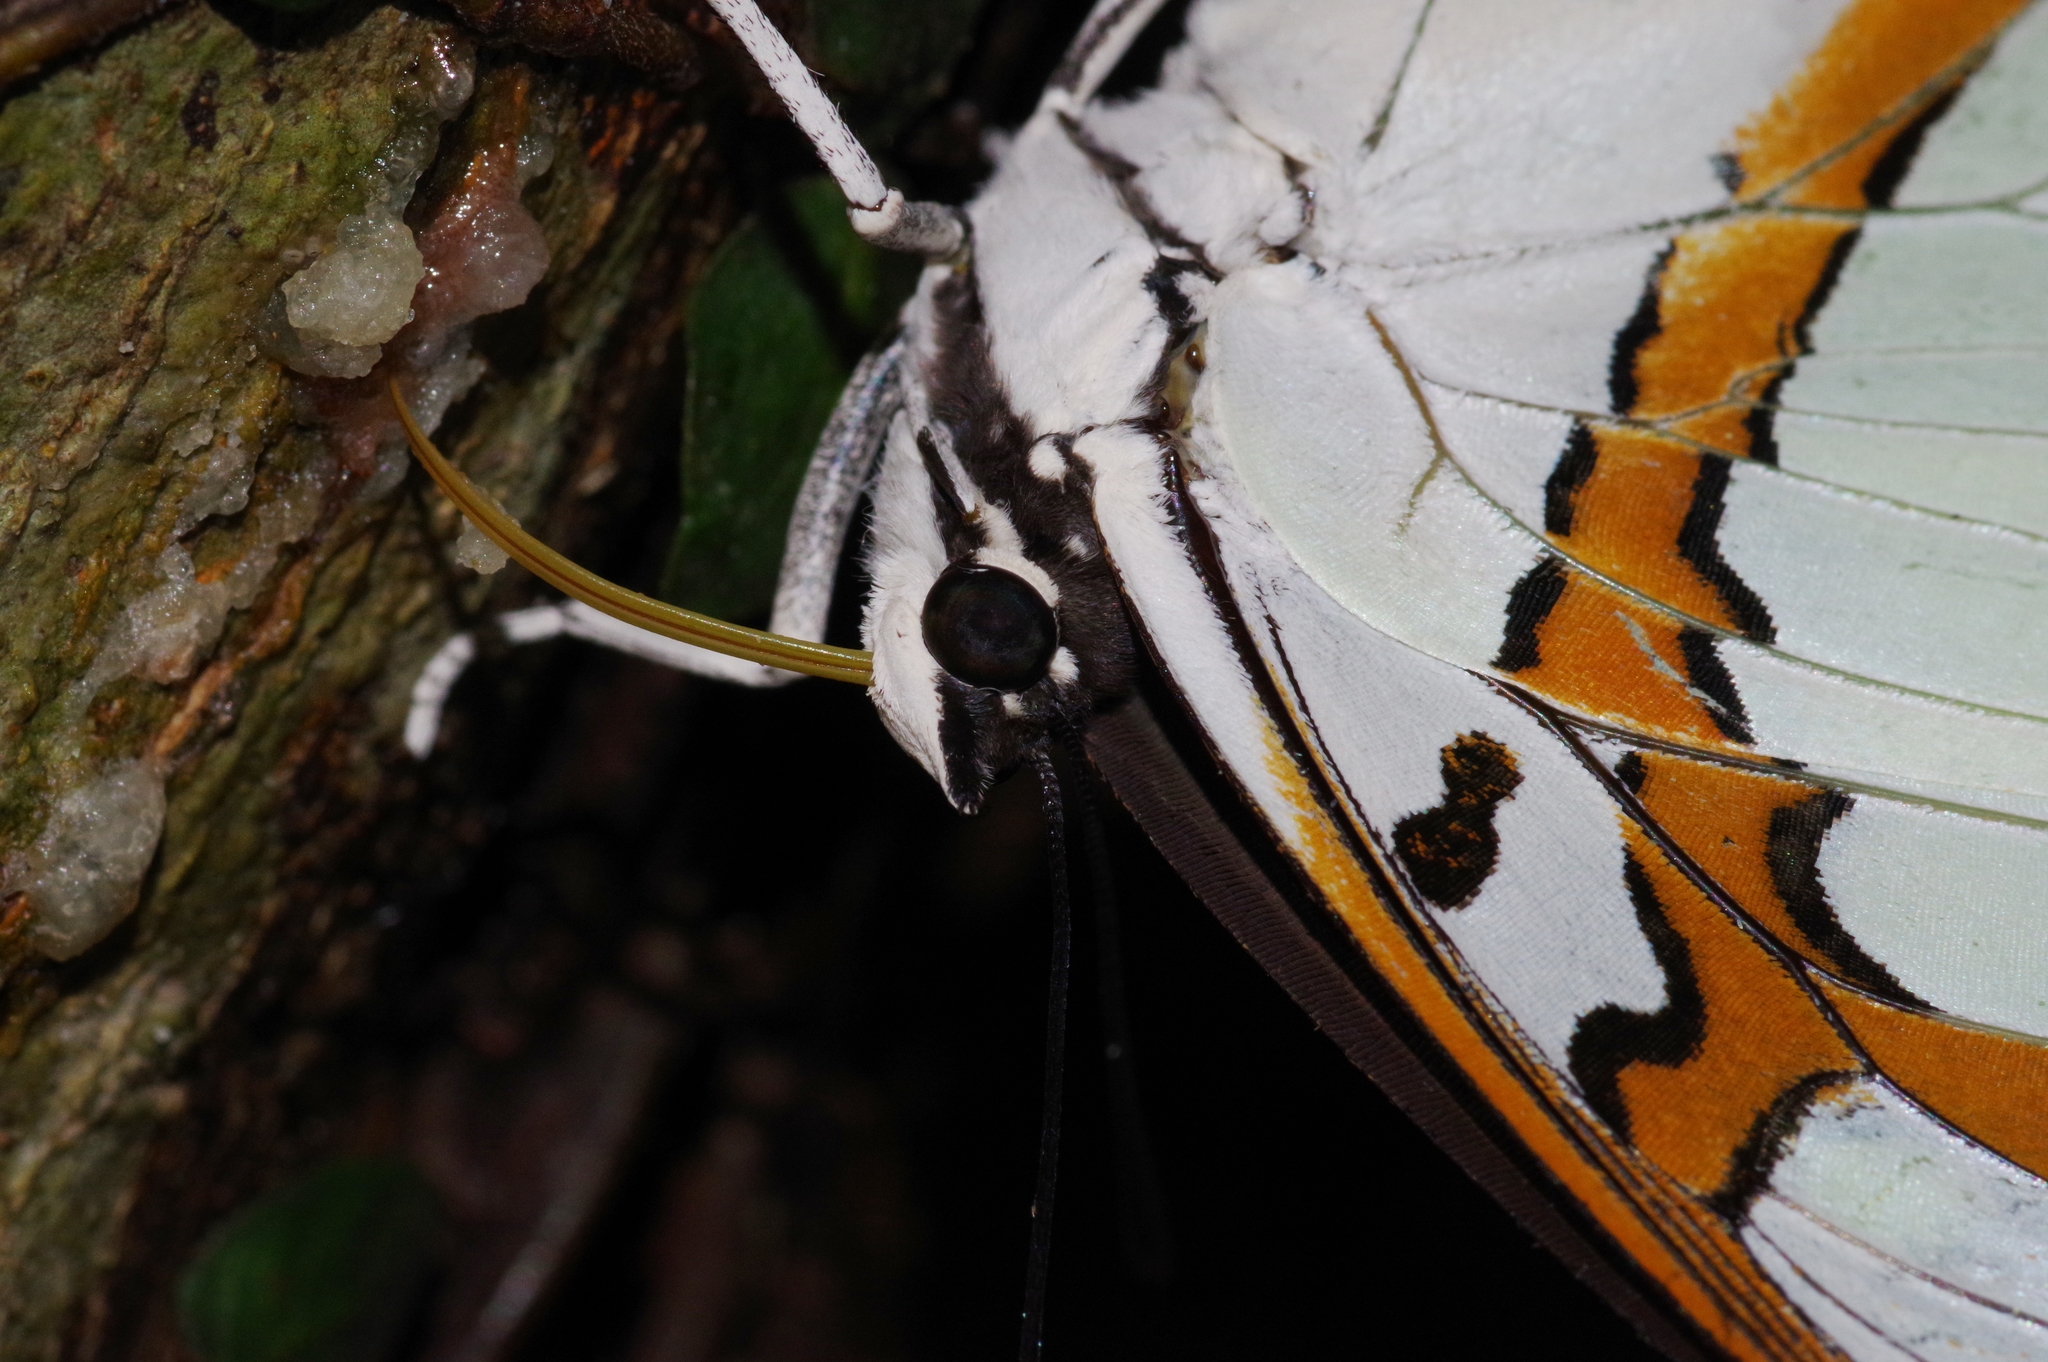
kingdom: Animalia
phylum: Arthropoda
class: Insecta
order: Lepidoptera
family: Nymphalidae
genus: Polyura
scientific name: Polyura
